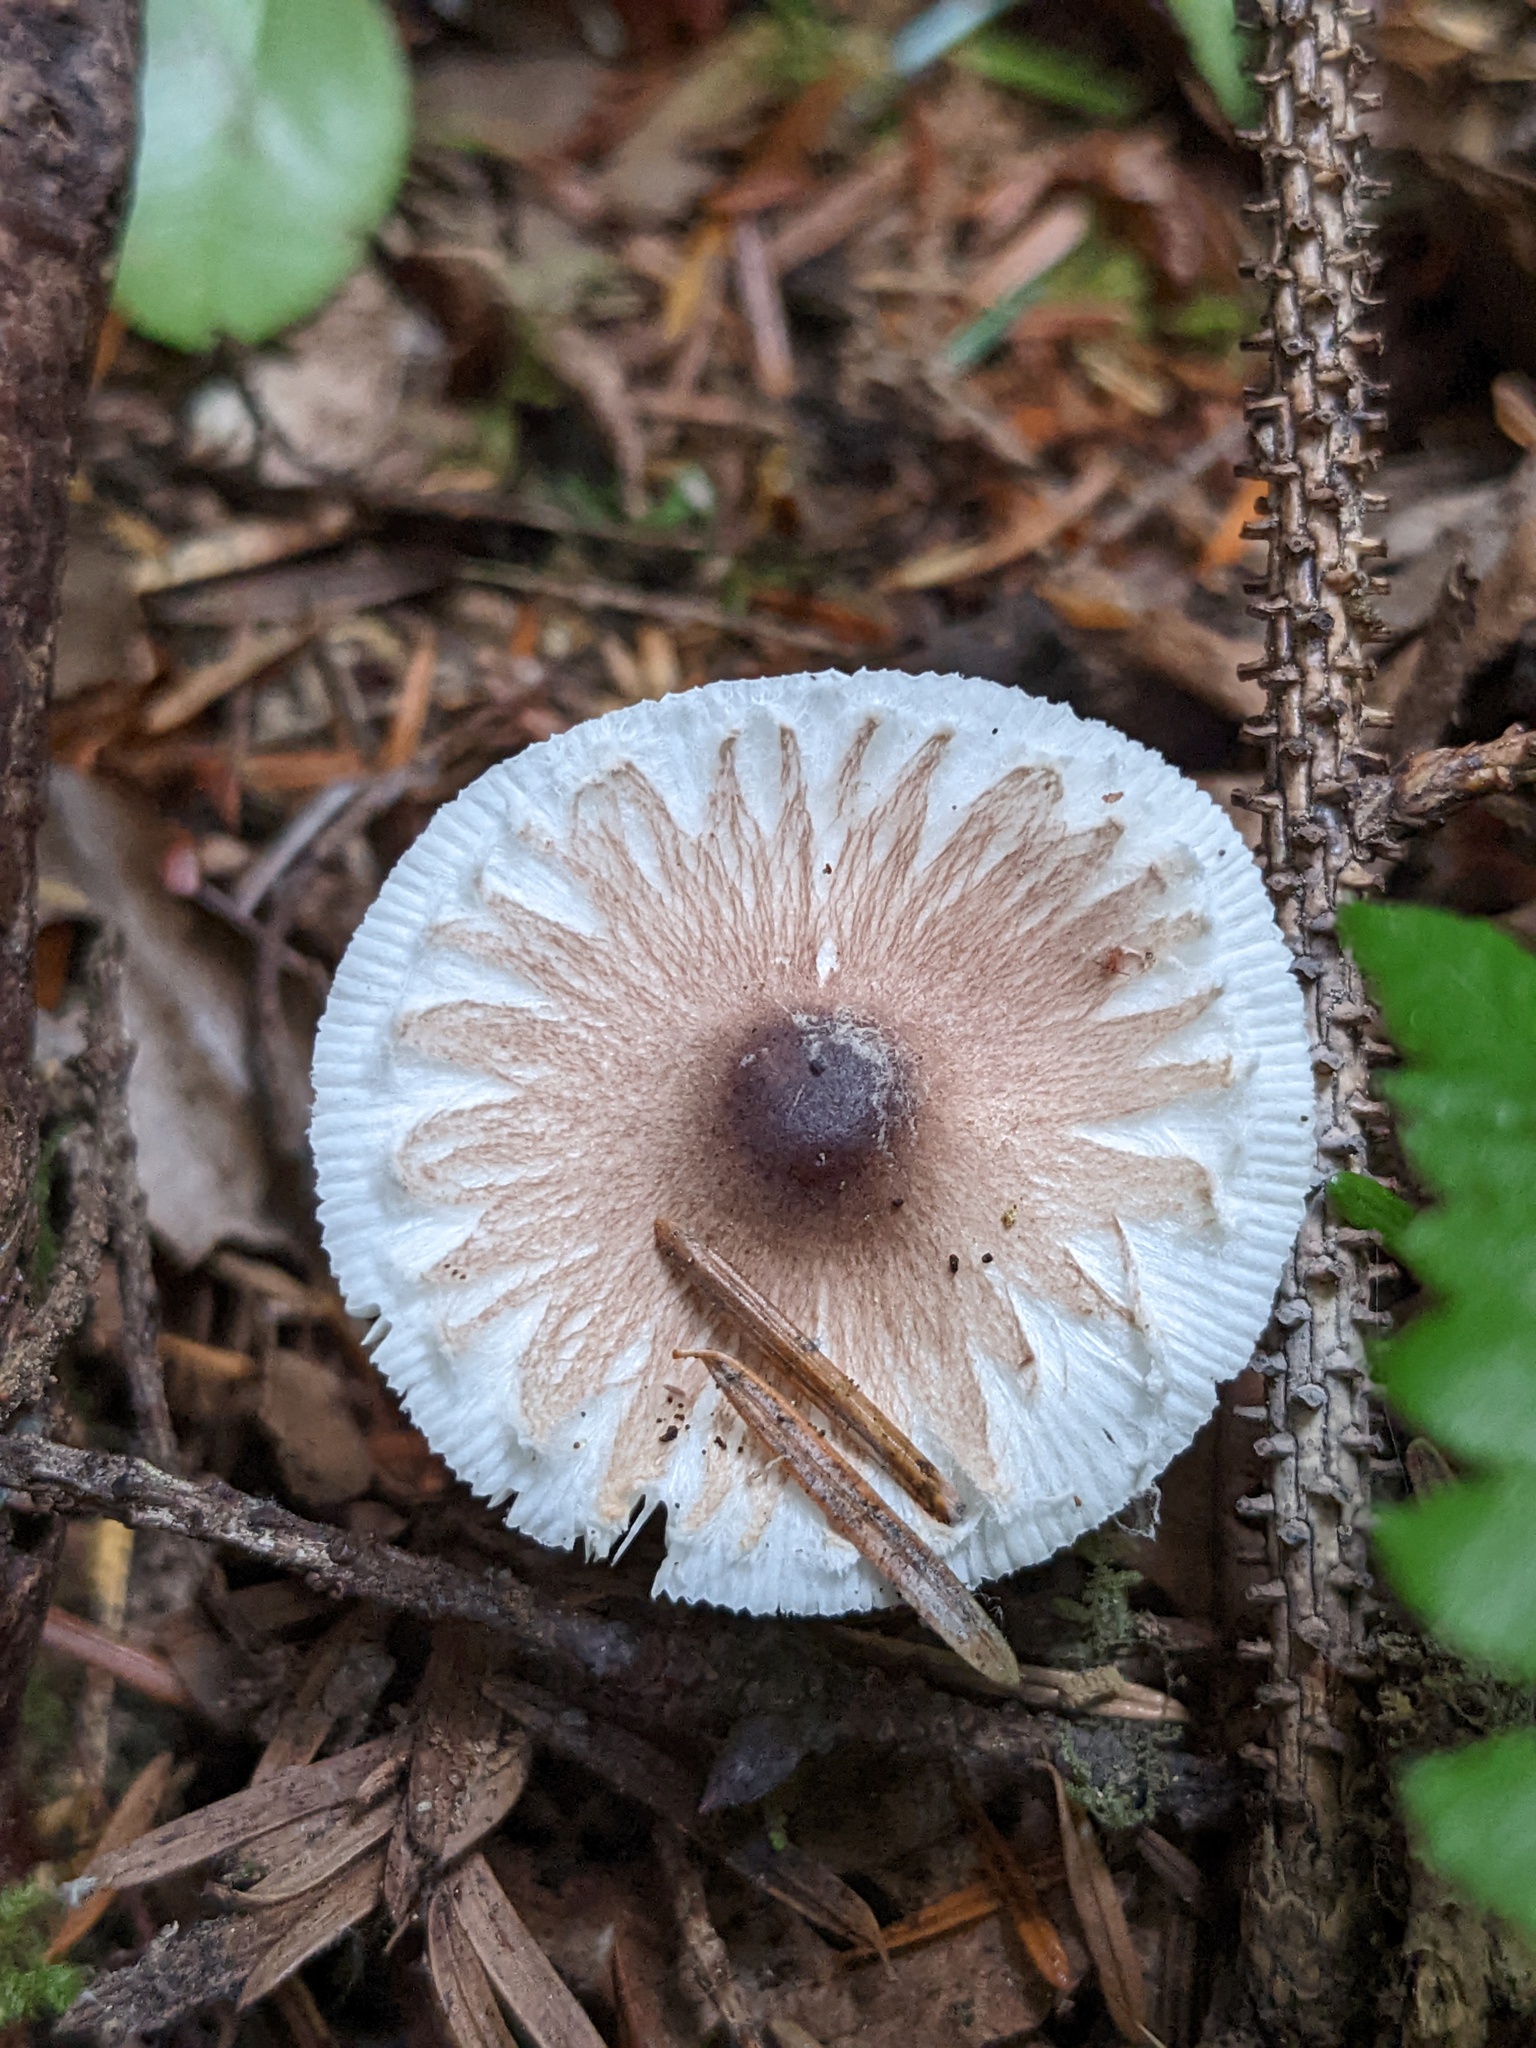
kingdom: Fungi
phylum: Basidiomycota
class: Agaricomycetes
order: Agaricales
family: Agaricaceae
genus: Lepiota
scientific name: Lepiota rubrotinctoides
